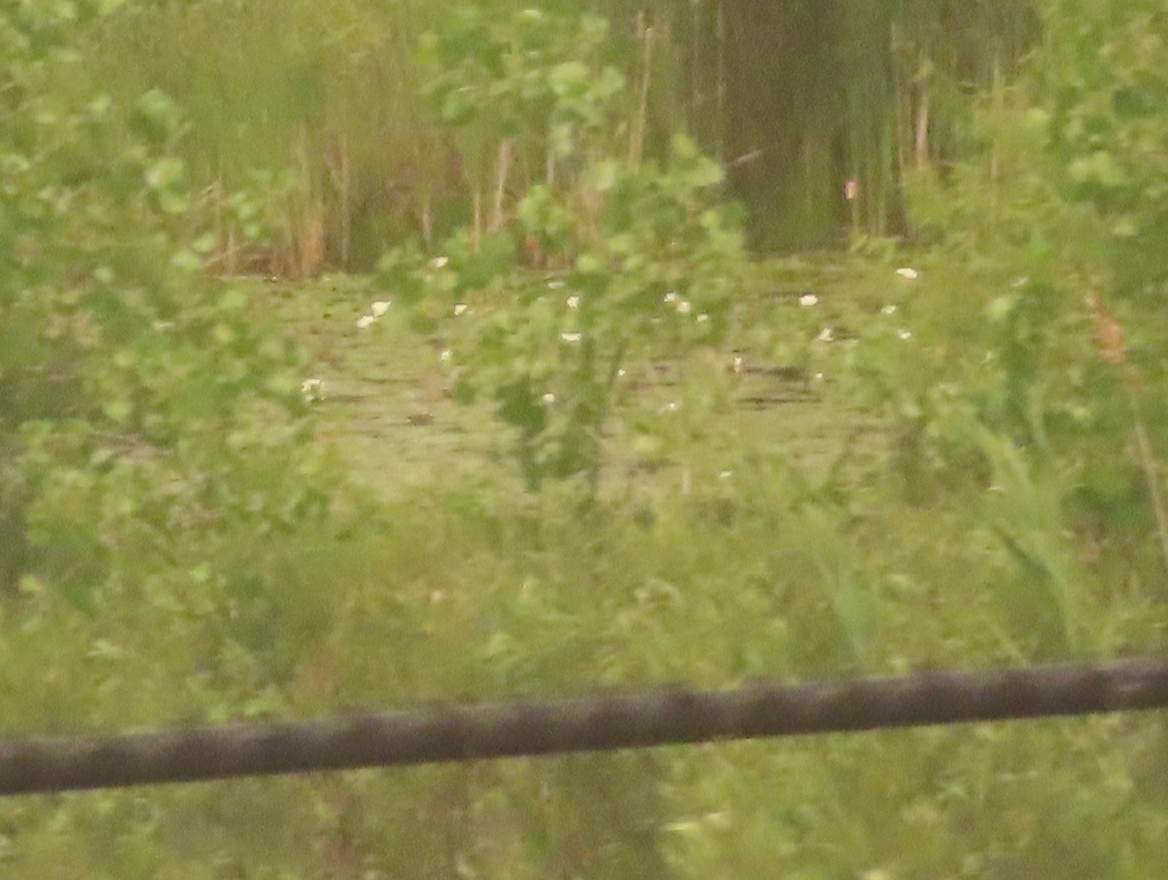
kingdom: Plantae
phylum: Tracheophyta
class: Magnoliopsida
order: Nymphaeales
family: Nymphaeaceae
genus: Nymphaea
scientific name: Nymphaea odorata
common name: Fragrant water-lily
